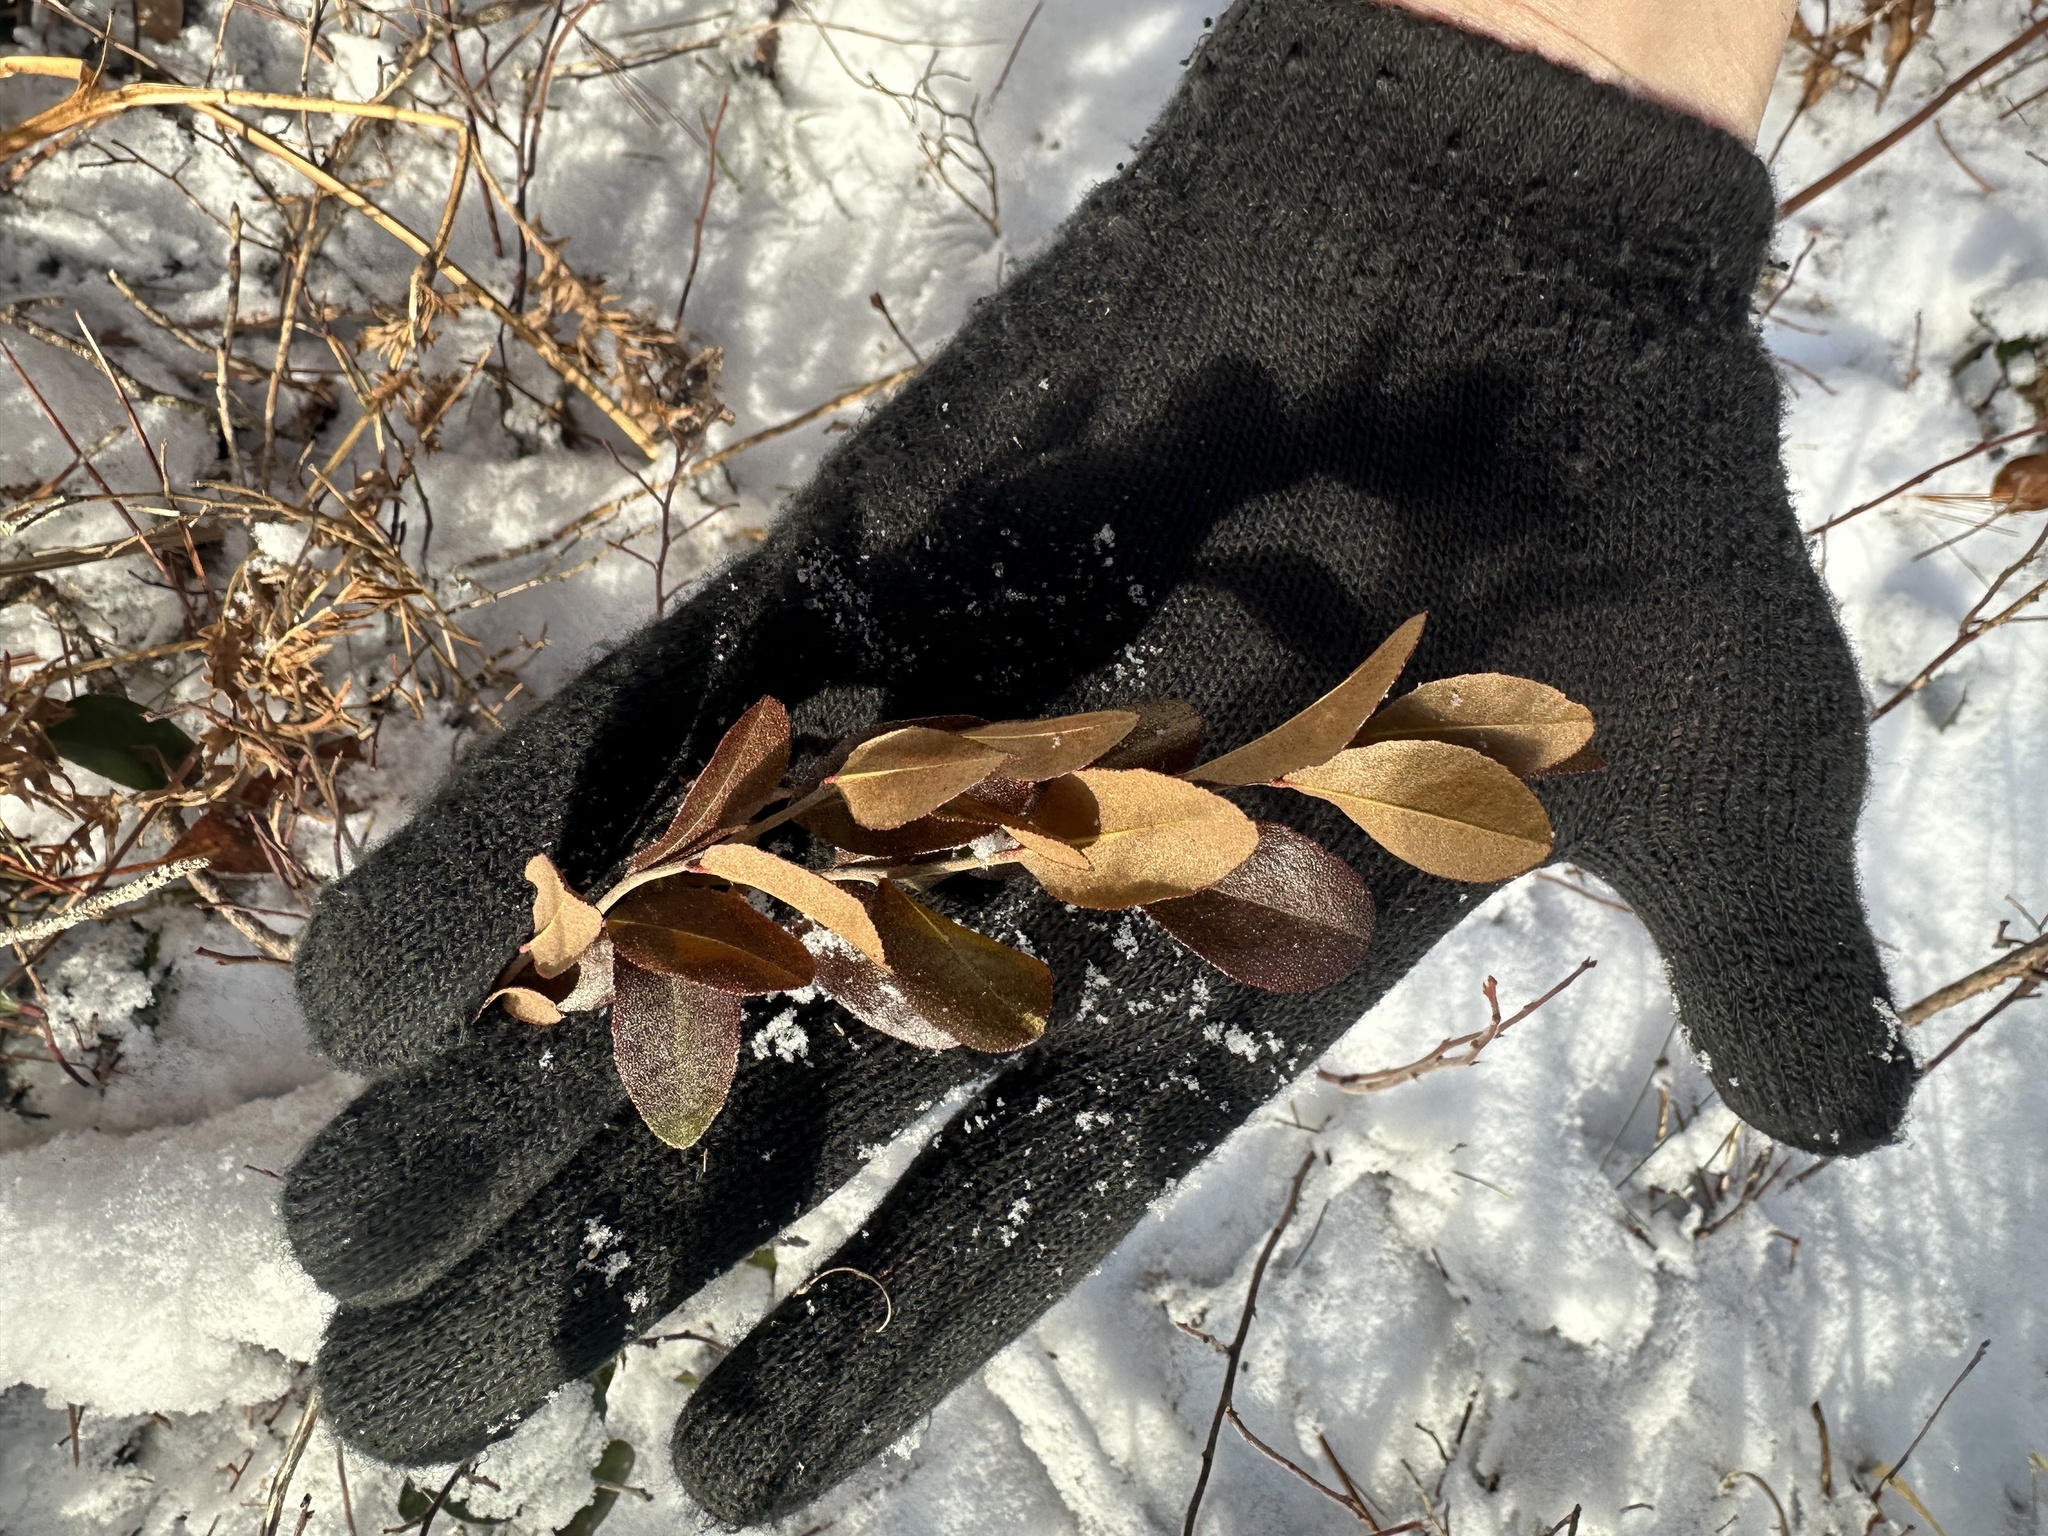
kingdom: Plantae
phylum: Tracheophyta
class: Magnoliopsida
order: Ericales
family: Ericaceae
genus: Chamaedaphne
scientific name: Chamaedaphne calyculata
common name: Leatherleaf
